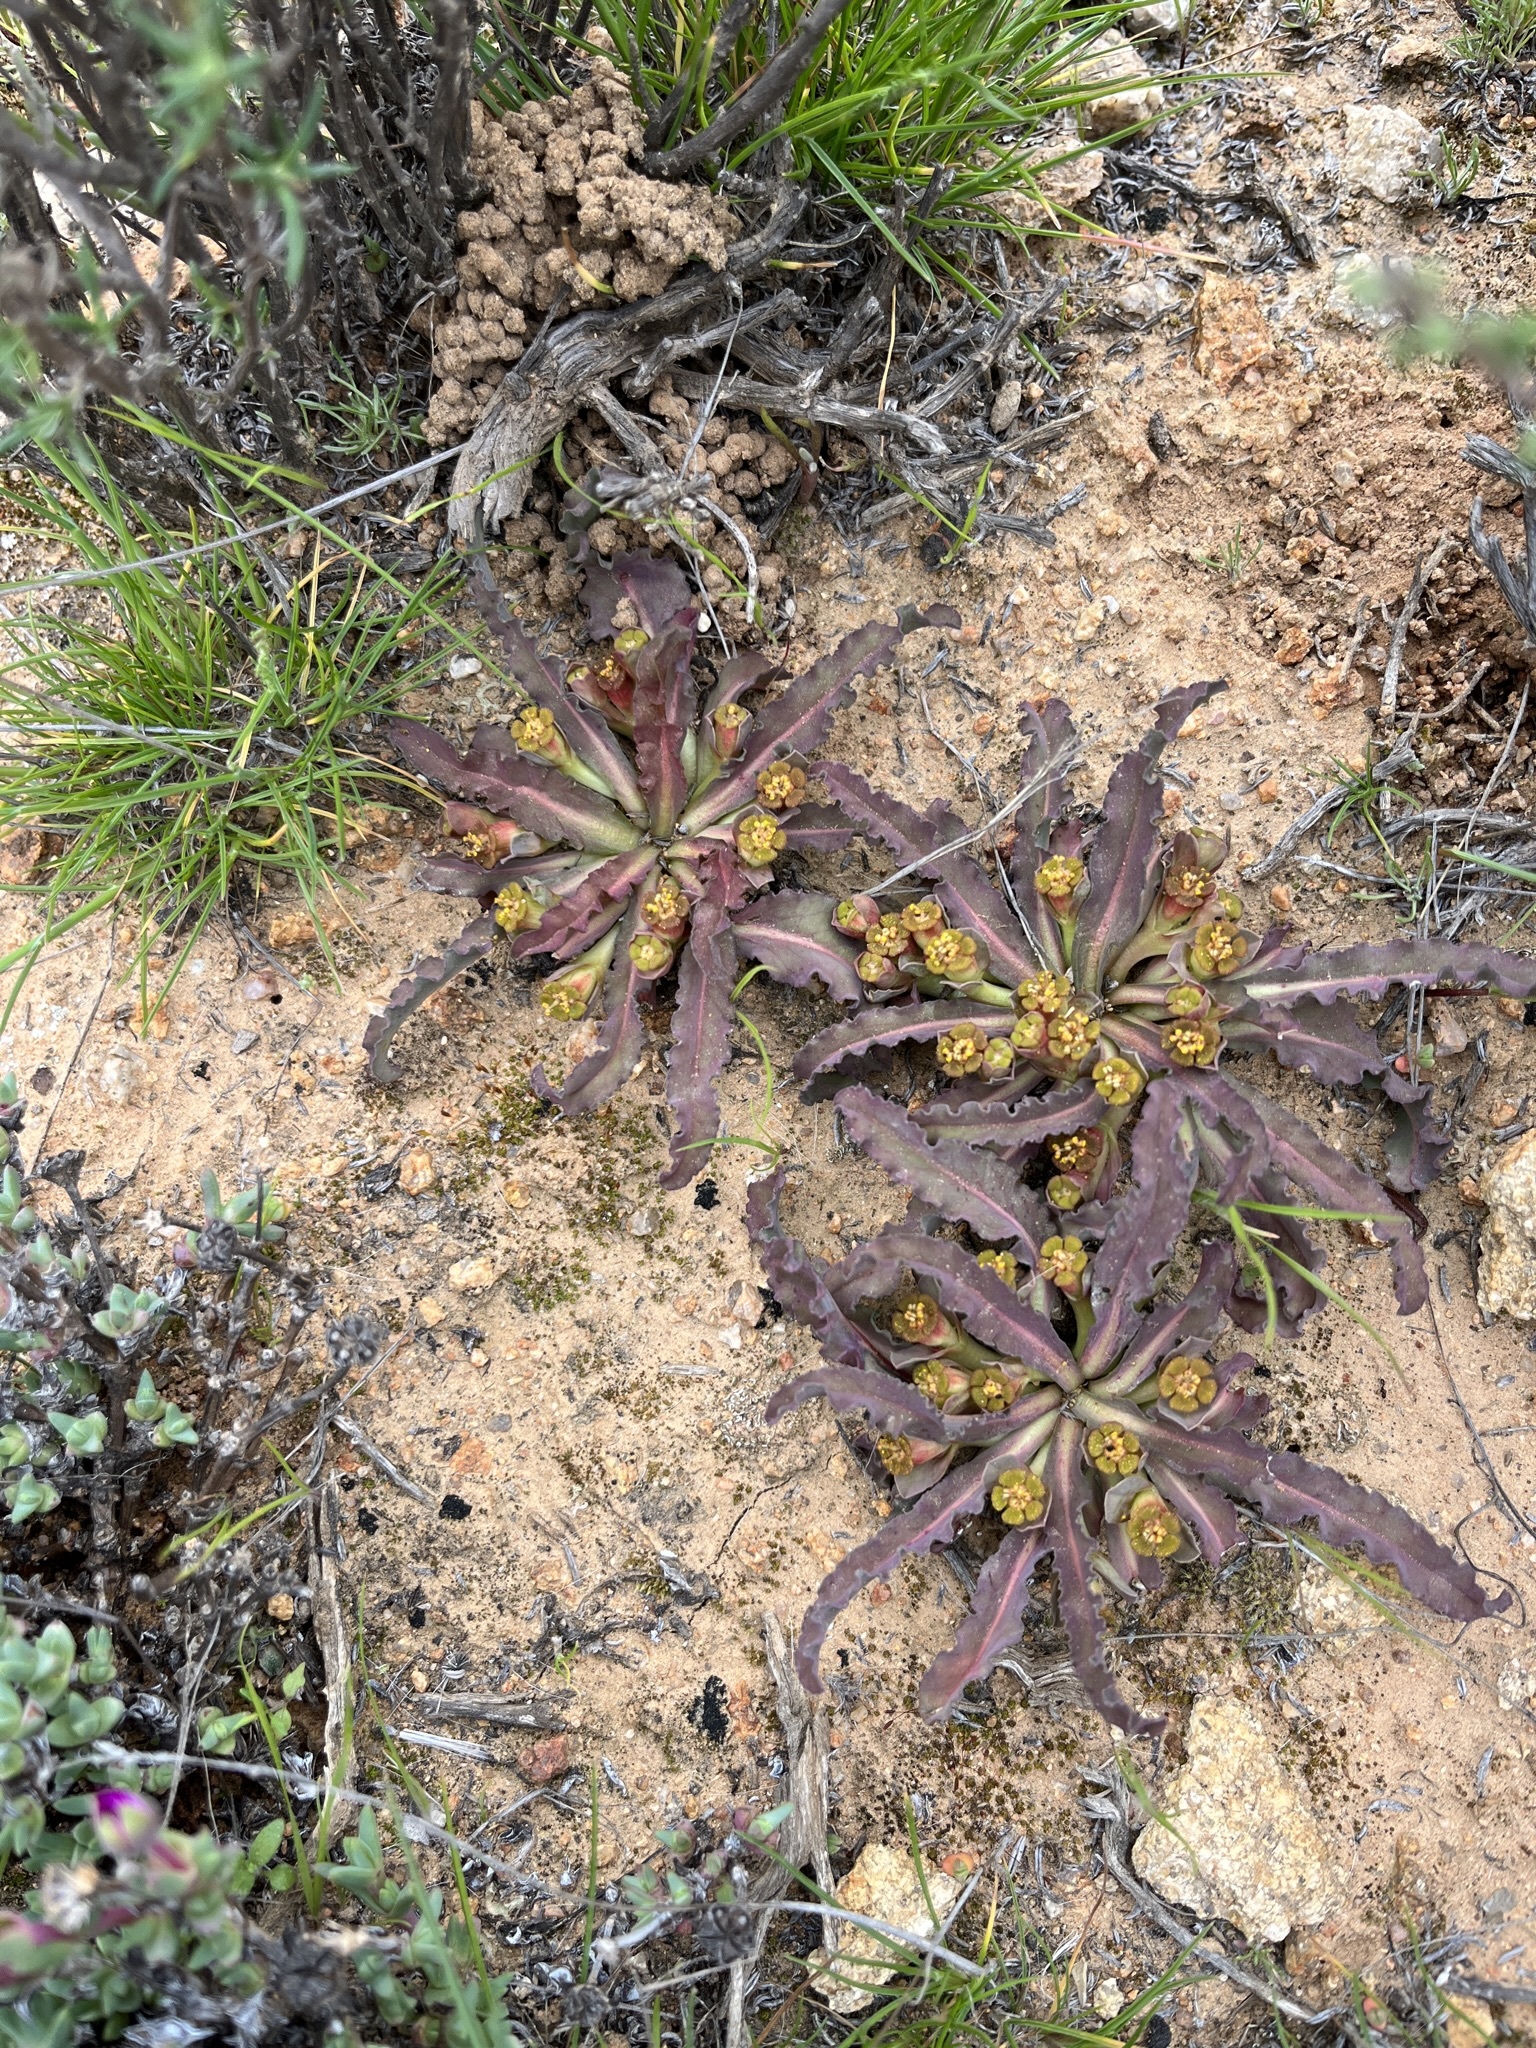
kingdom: Plantae
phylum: Tracheophyta
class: Magnoliopsida
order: Malpighiales
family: Euphorbiaceae
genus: Euphorbia
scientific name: Euphorbia tuberosa
